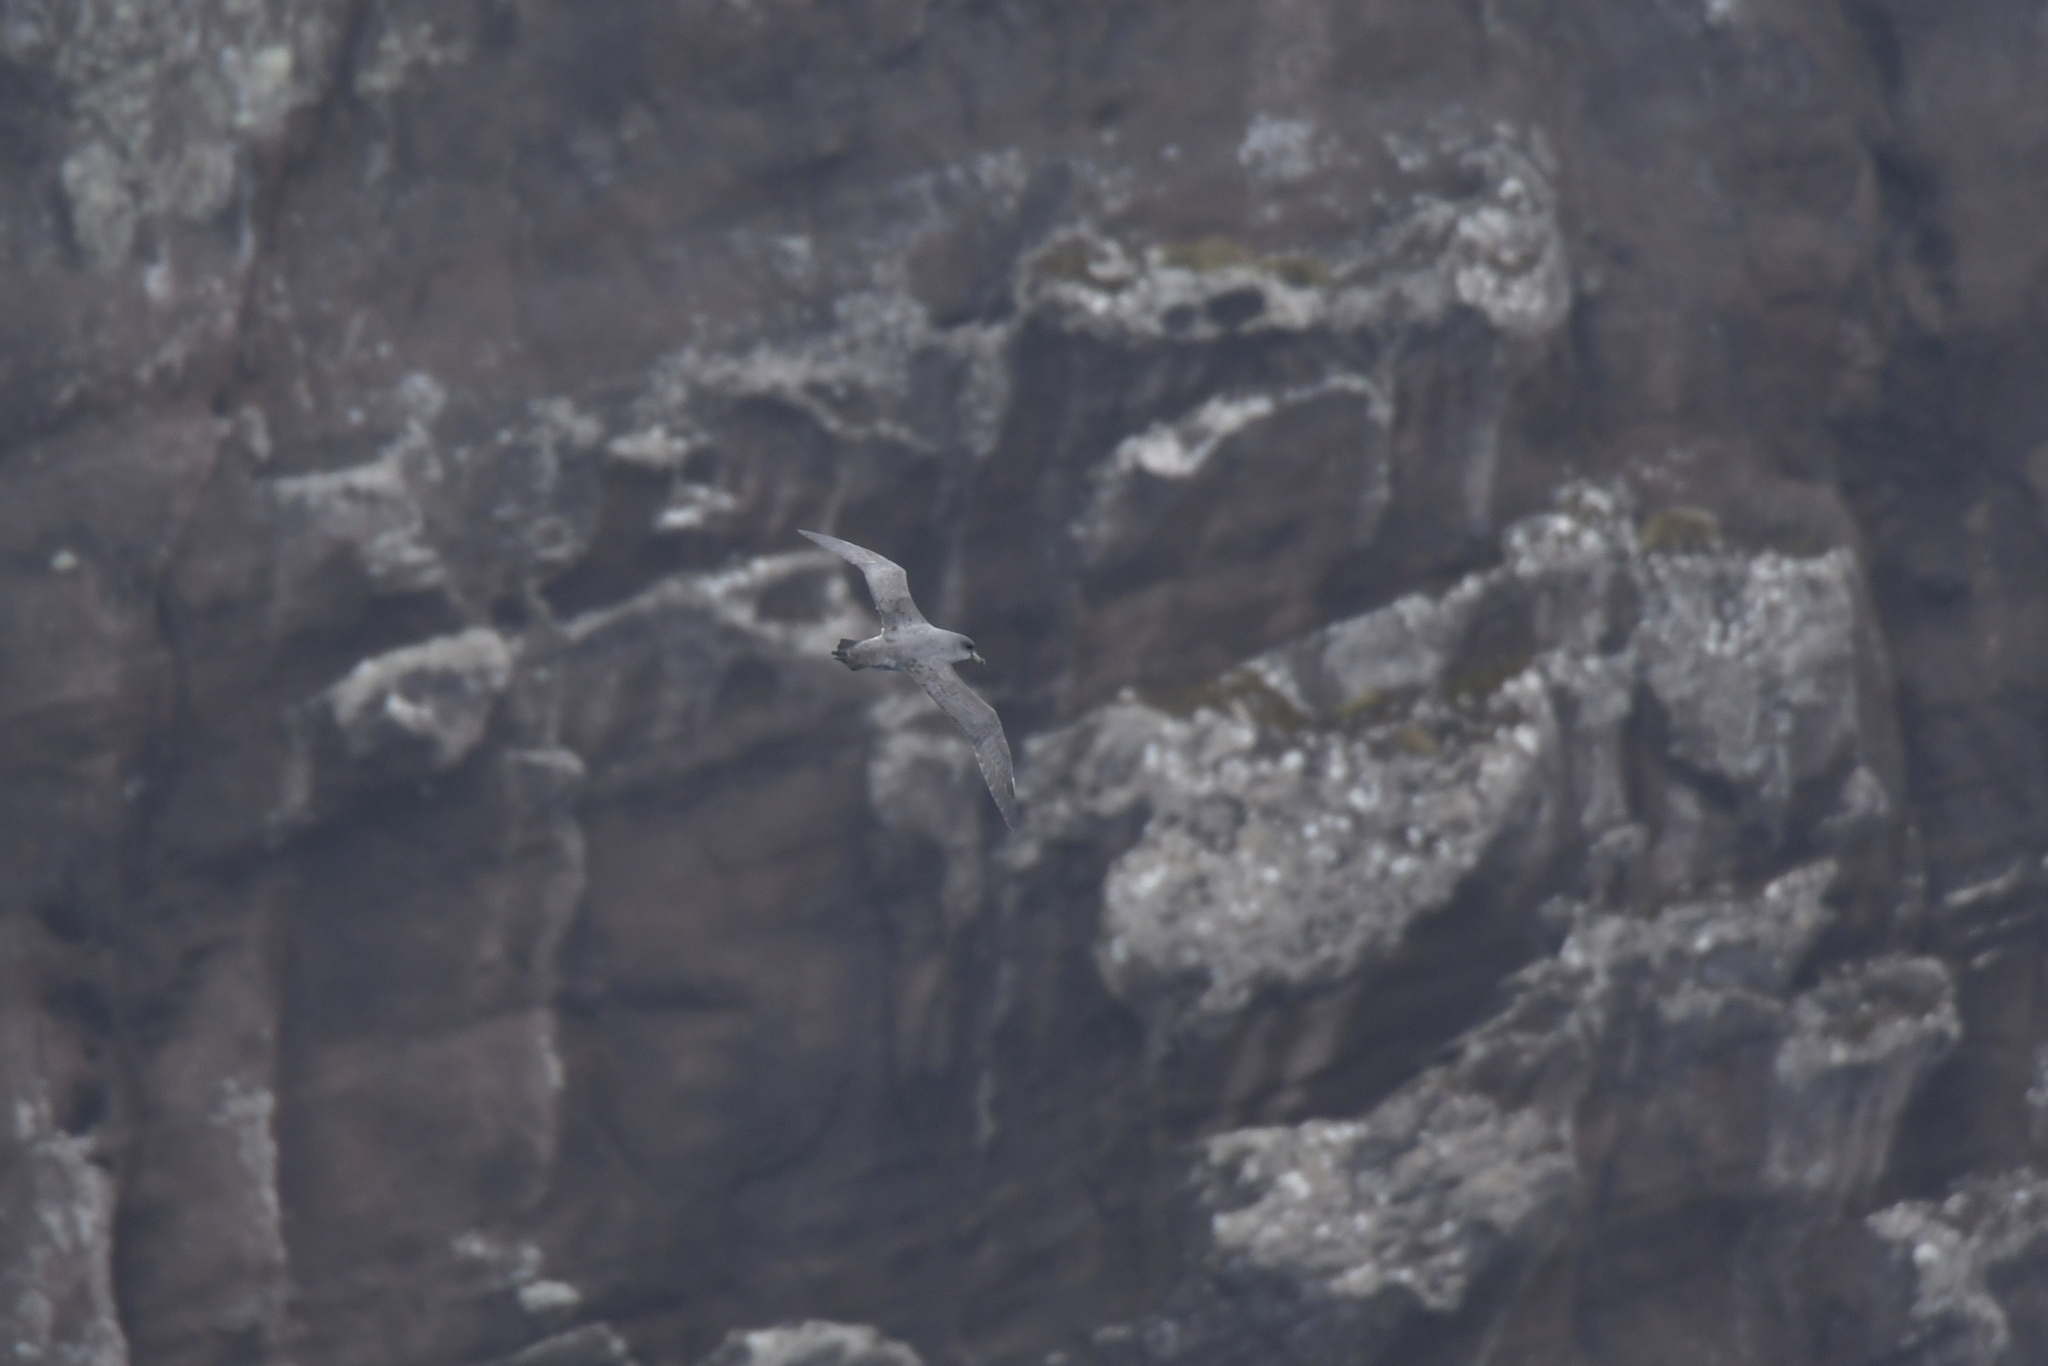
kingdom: Animalia
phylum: Chordata
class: Aves
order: Procellariiformes
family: Procellariidae
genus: Procellaria
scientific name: Procellaria cinerea
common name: Grey petrel
